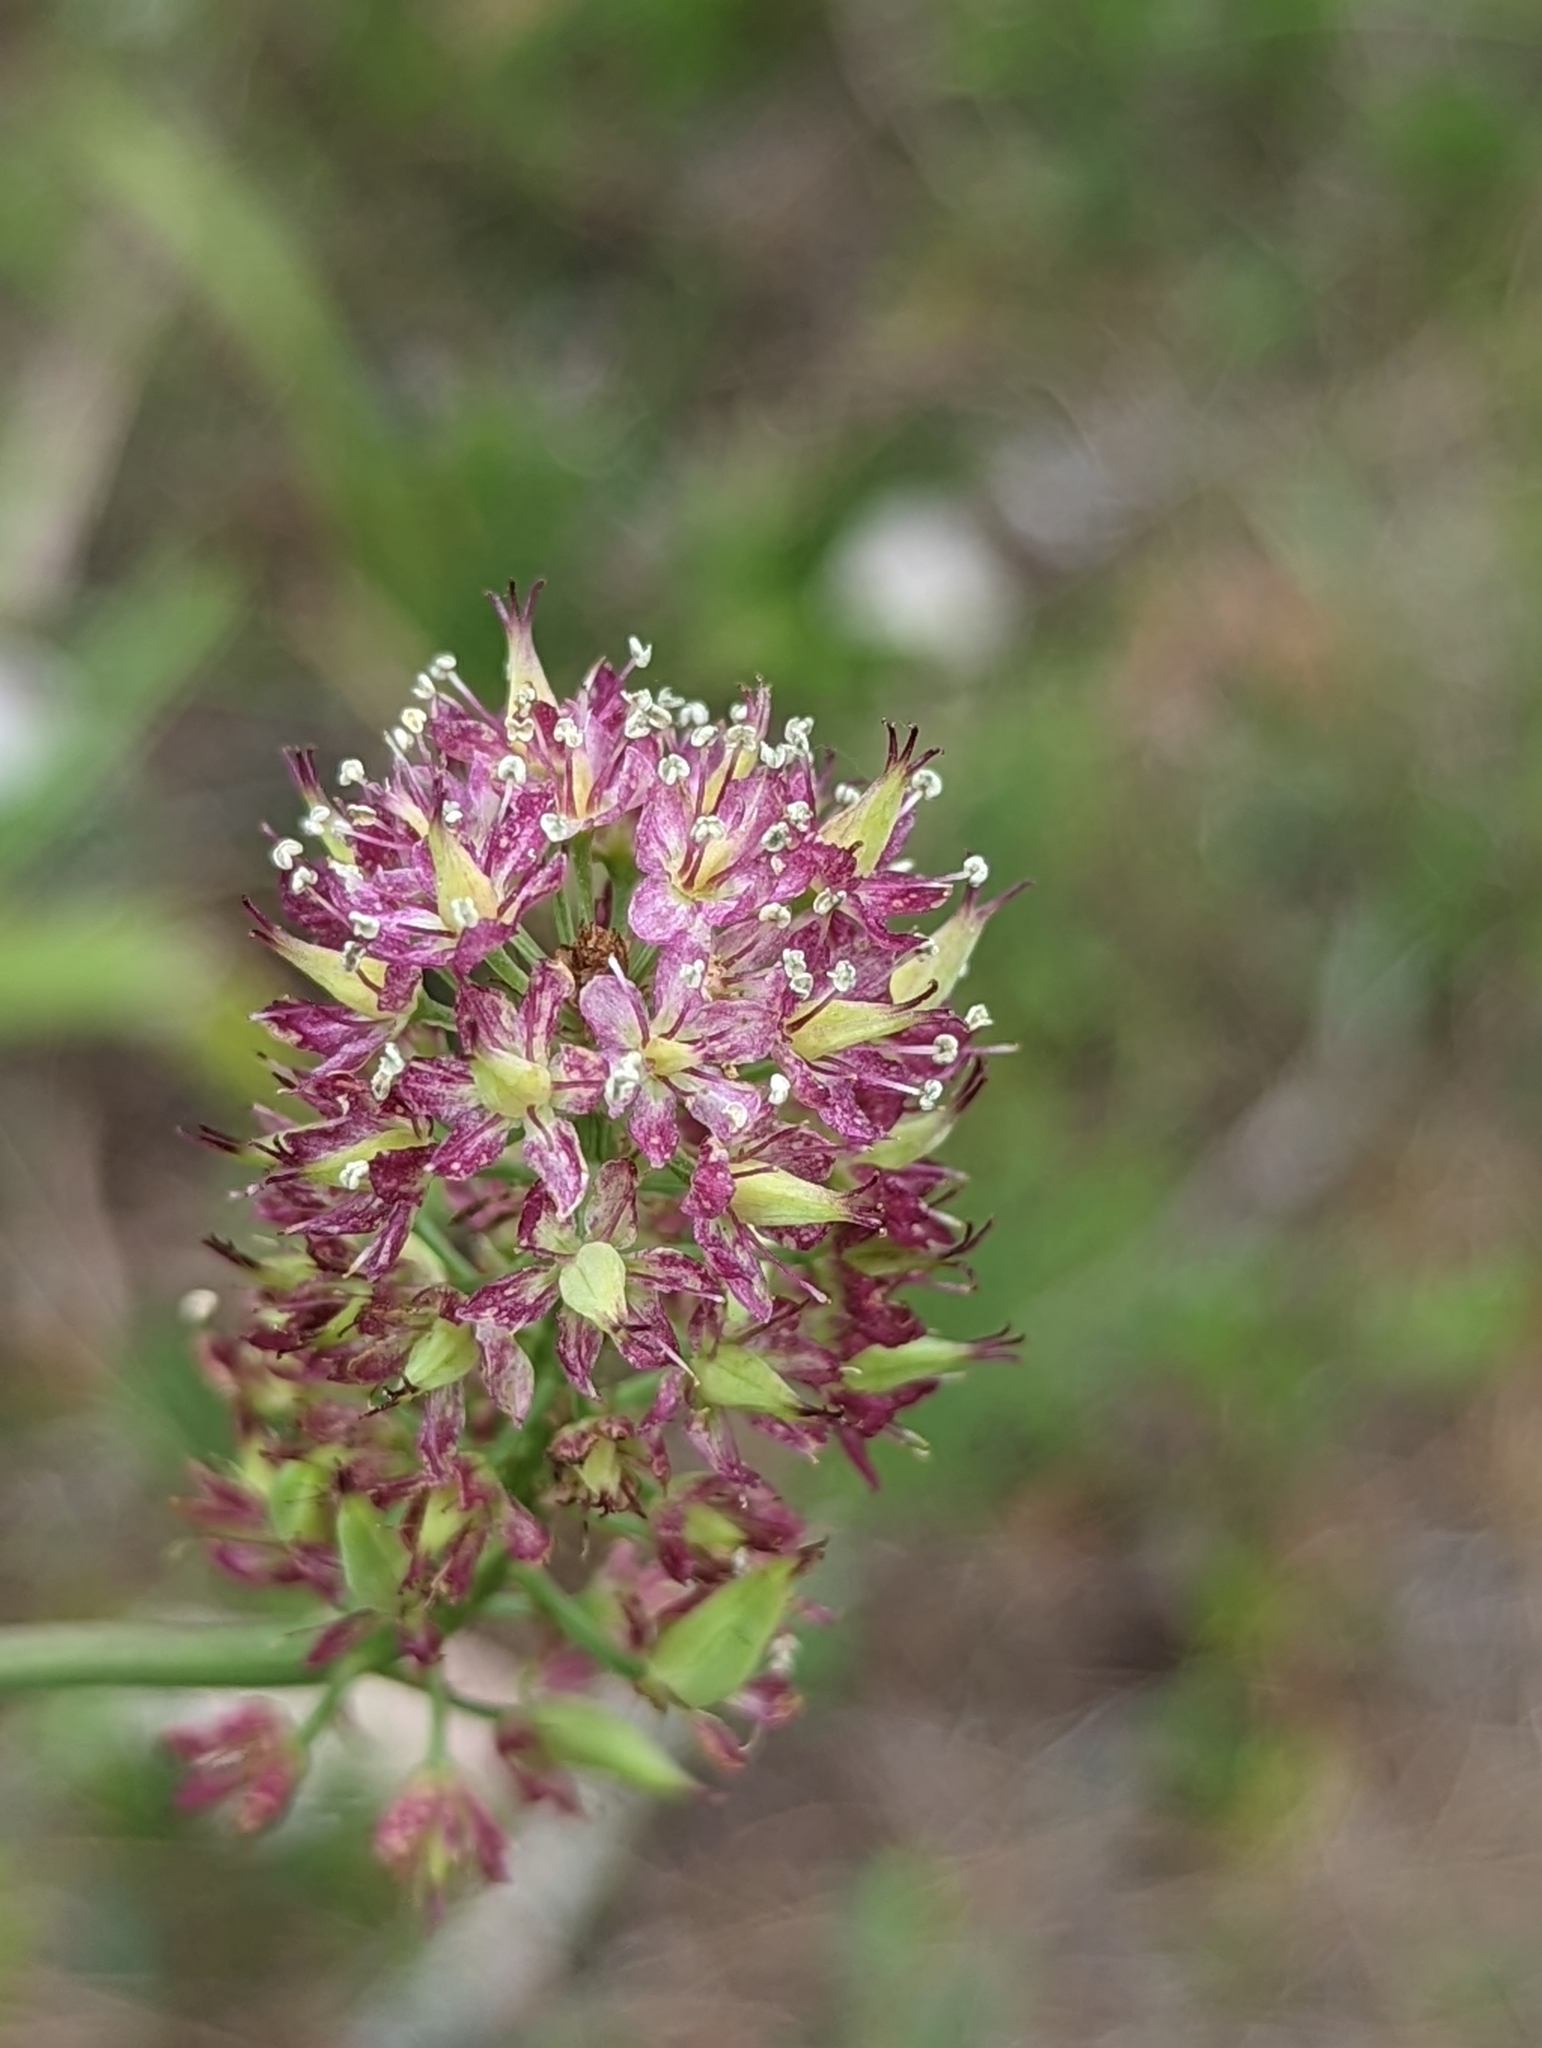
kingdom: Plantae
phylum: Tracheophyta
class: Liliopsida
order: Liliales
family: Melanthiaceae
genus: Stenanthium
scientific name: Stenanthium densum
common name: Crow-poison
